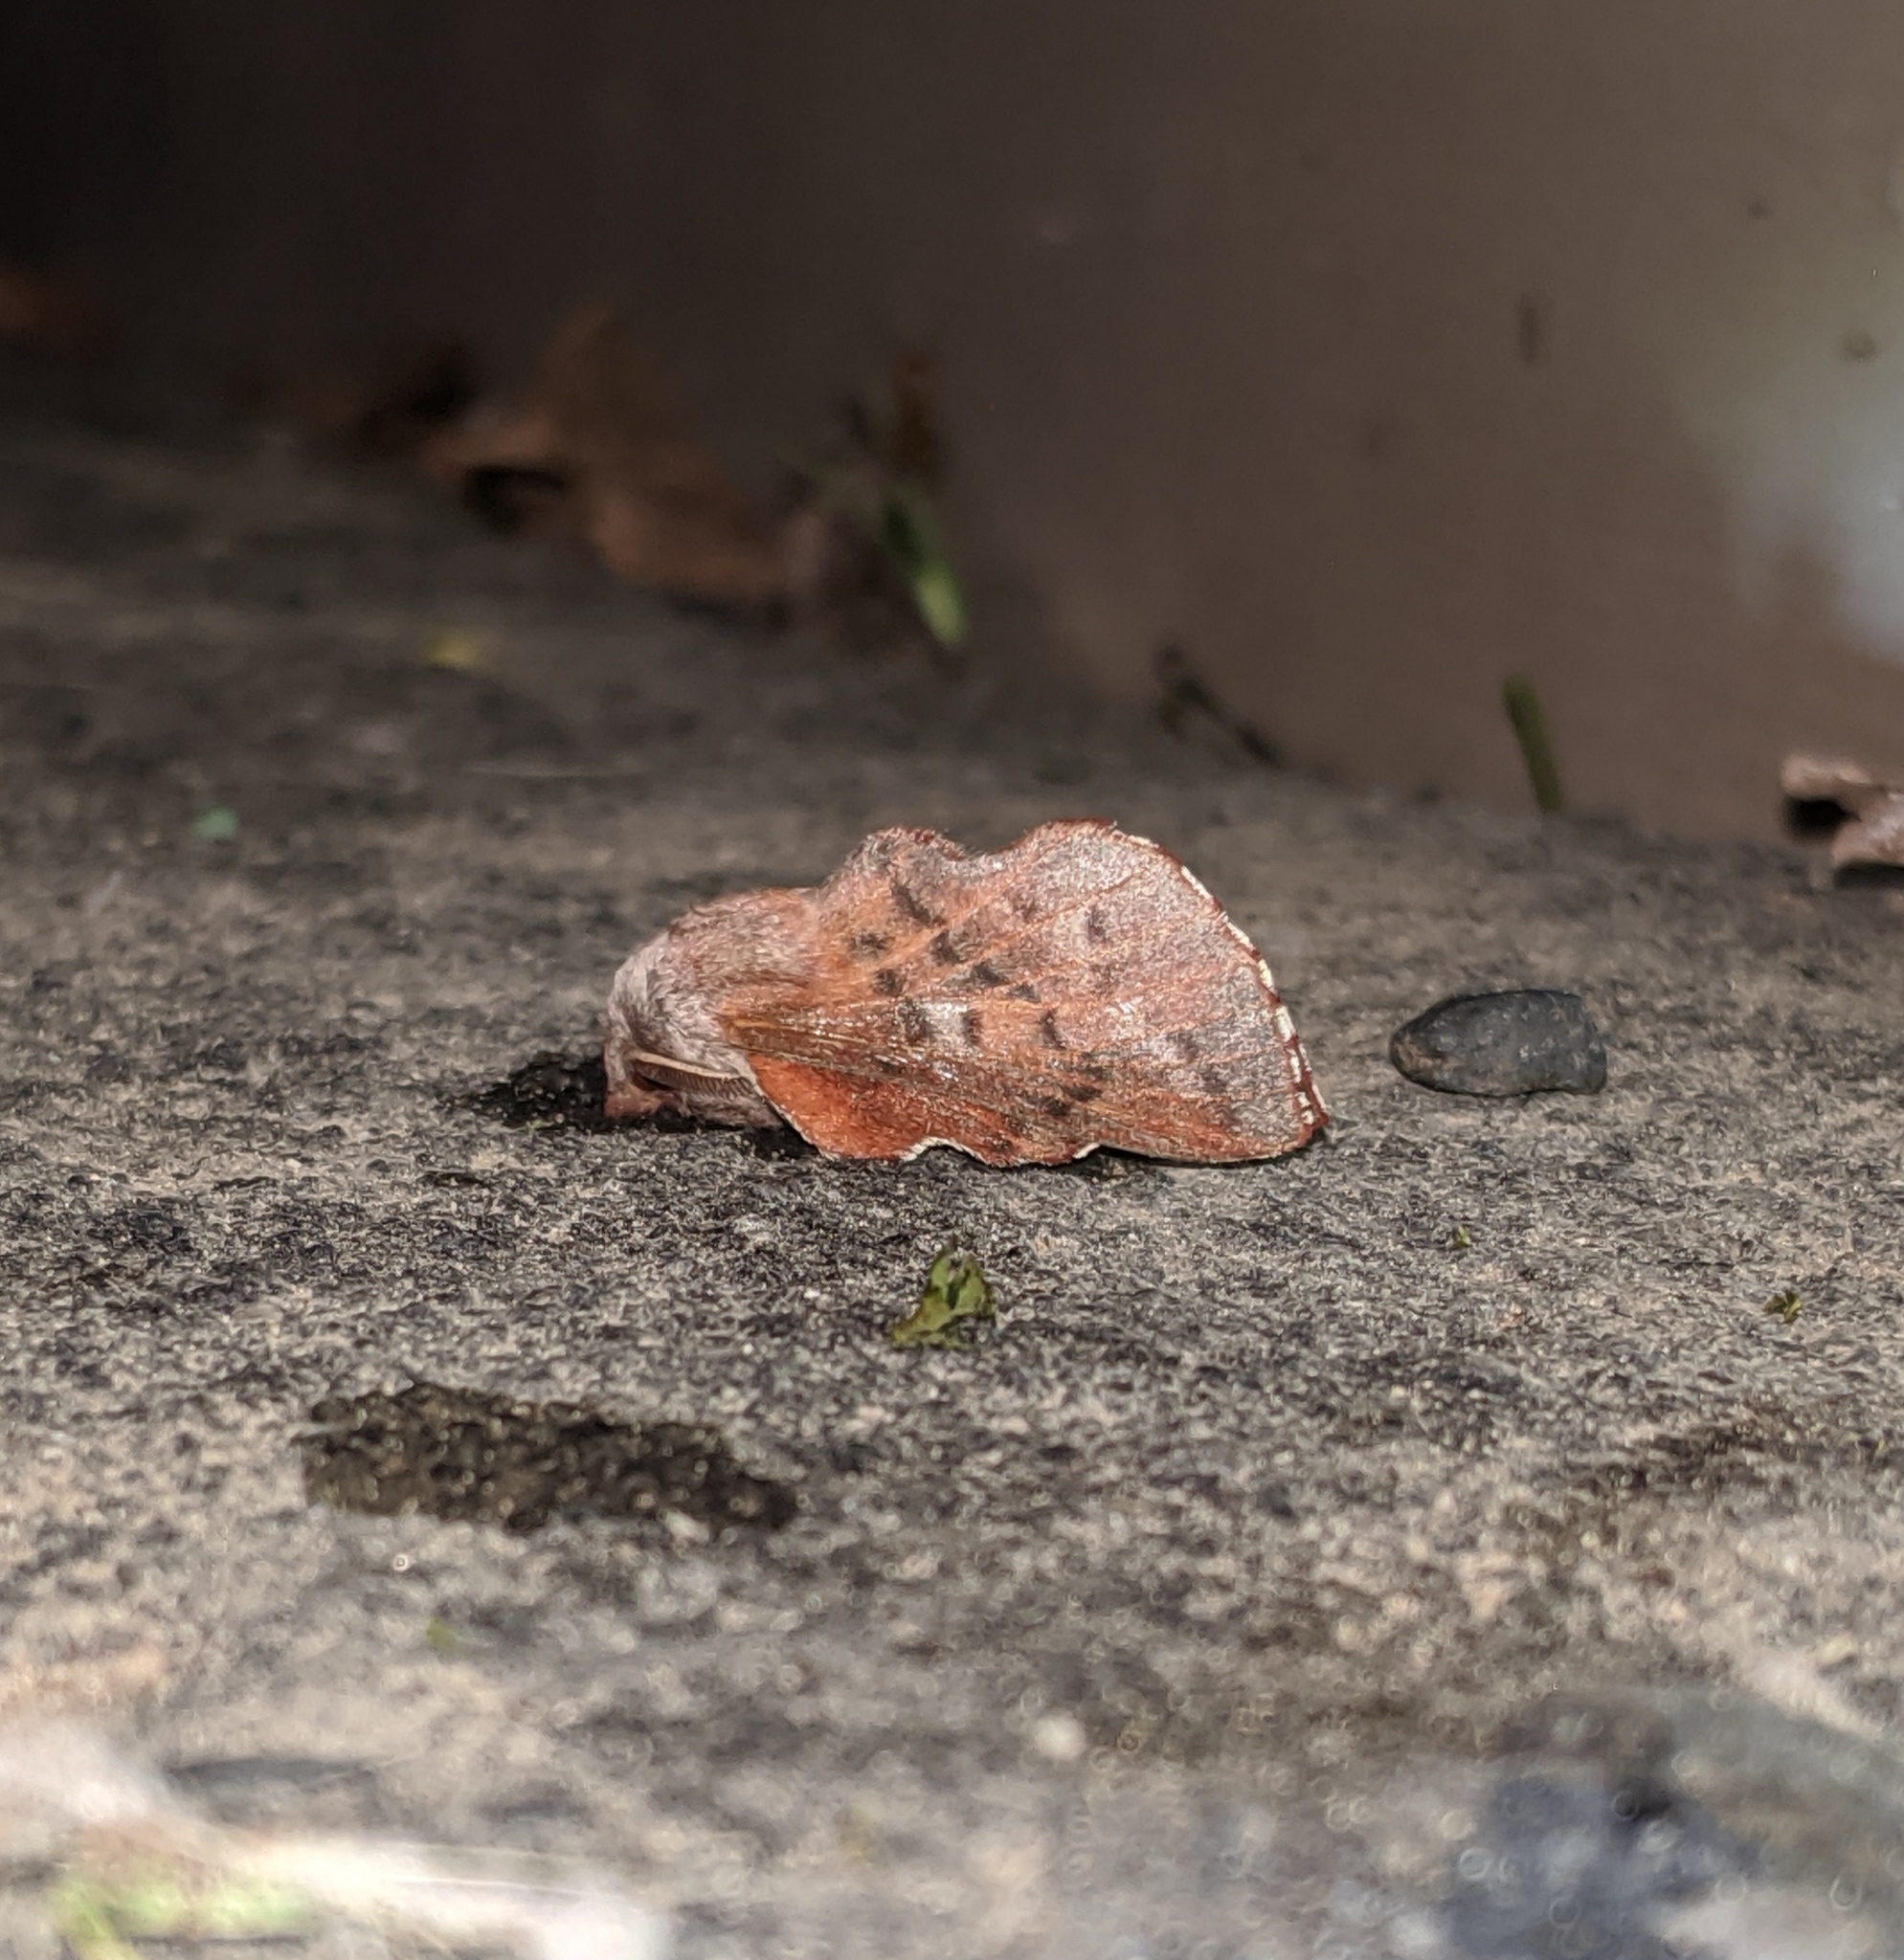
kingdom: Animalia
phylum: Arthropoda
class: Insecta
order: Lepidoptera
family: Lasiocampidae
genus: Phyllodesma
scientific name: Phyllodesma americana
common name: American lappet moth
